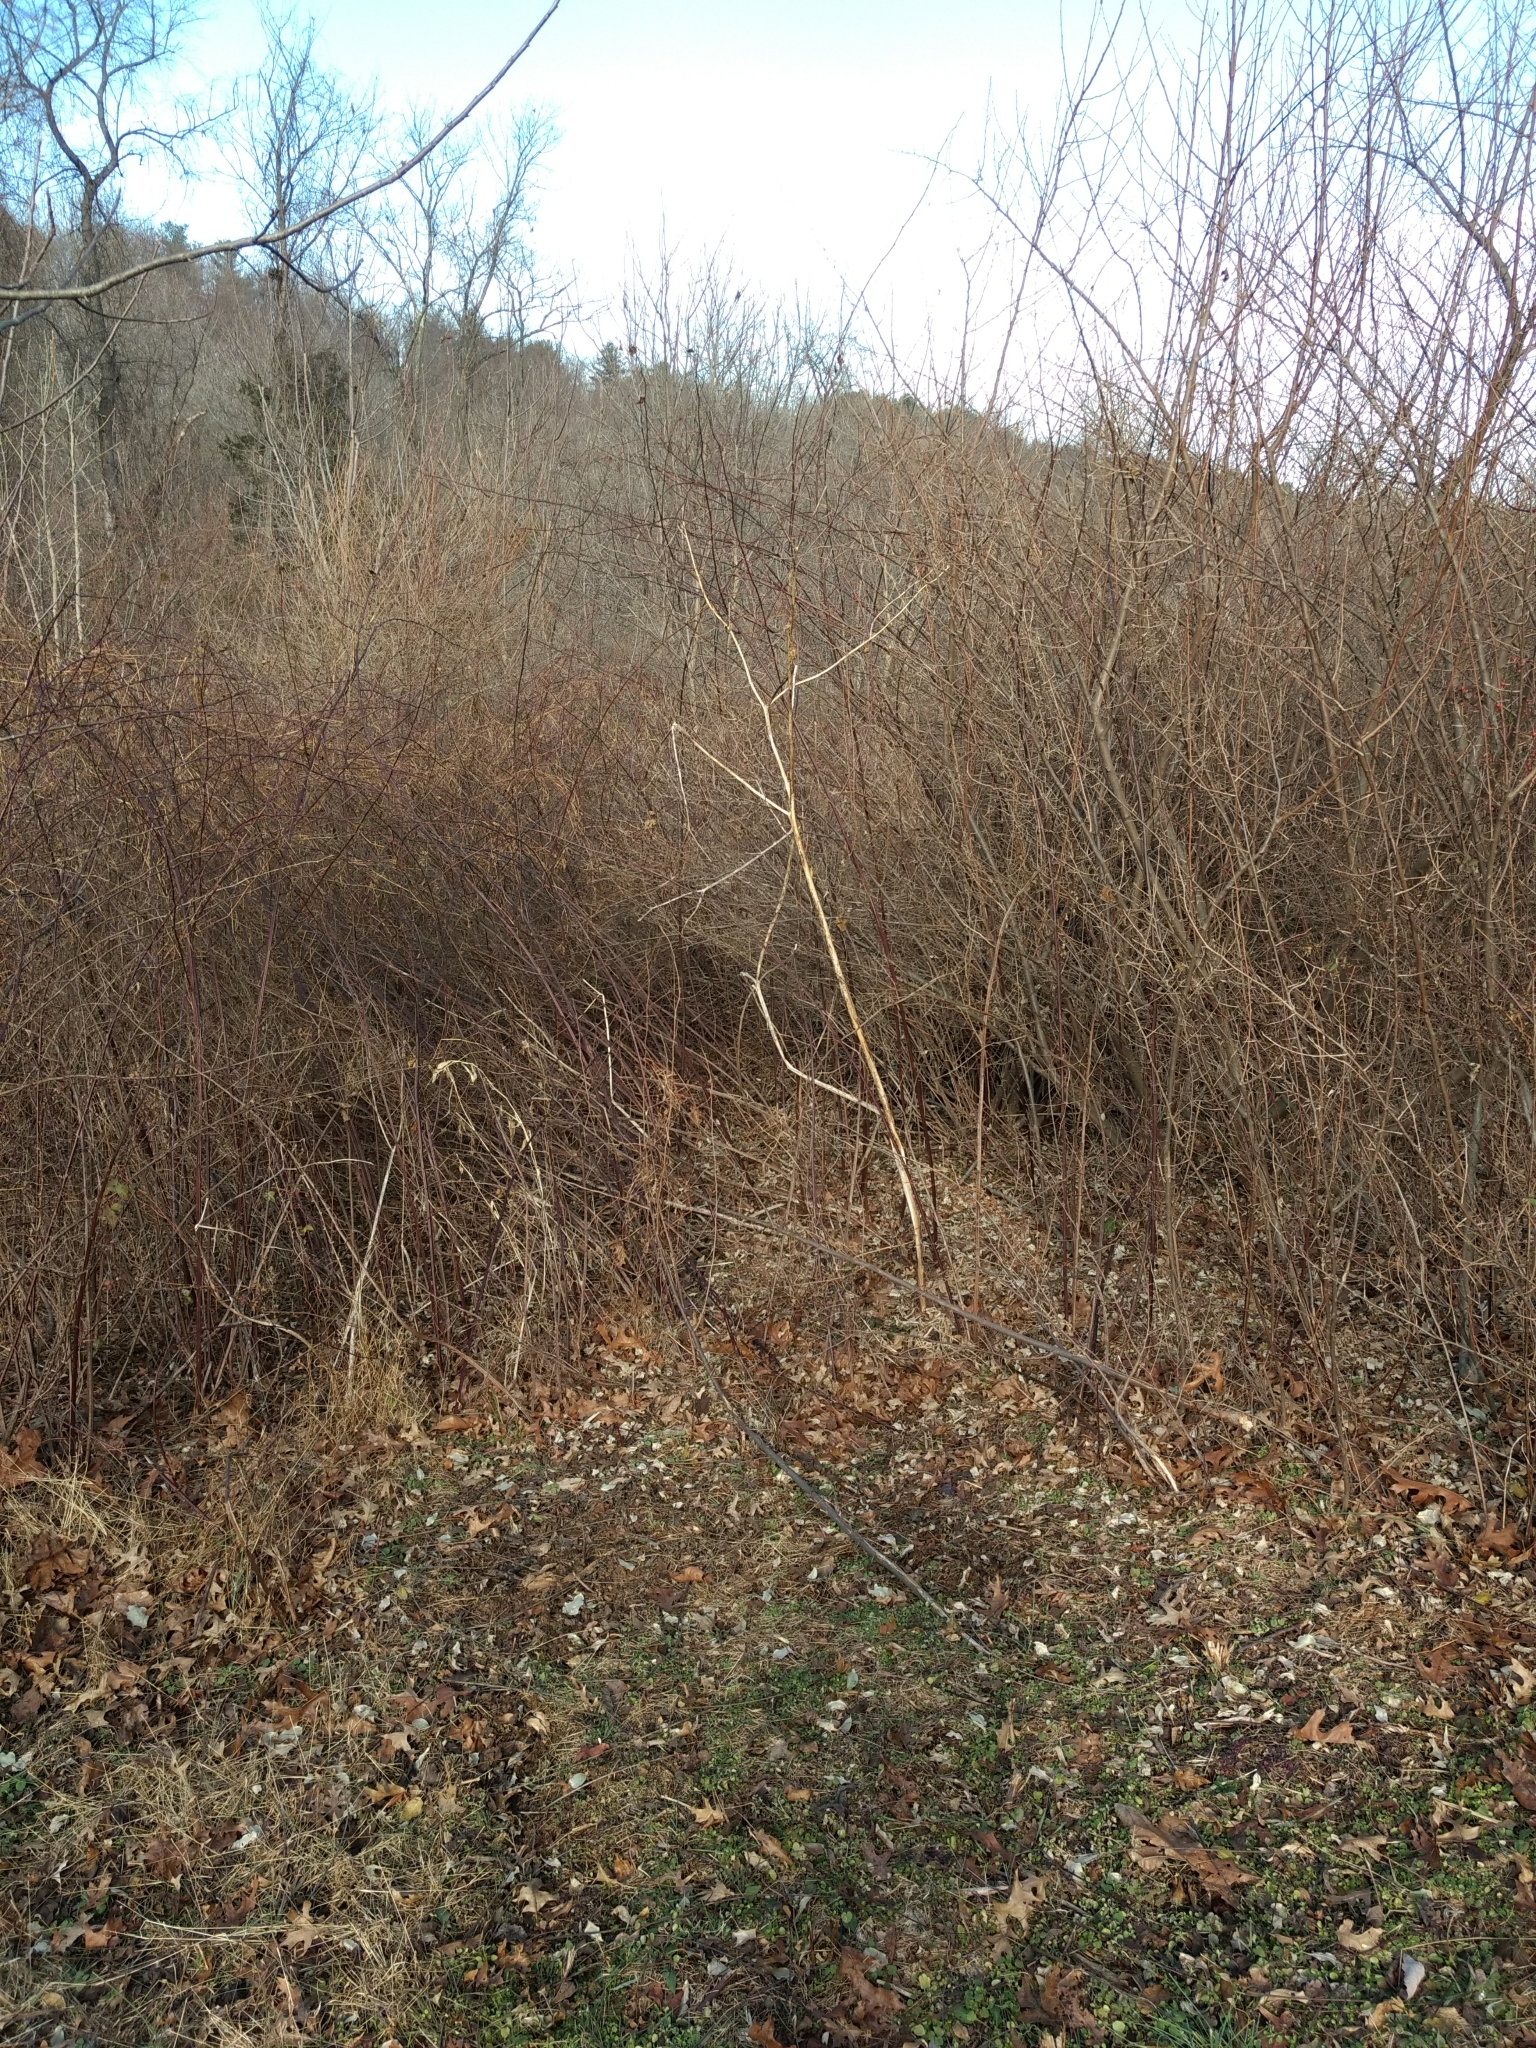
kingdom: Plantae
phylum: Tracheophyta
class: Magnoliopsida
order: Caryophyllales
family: Phytolaccaceae
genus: Phytolacca
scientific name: Phytolacca americana
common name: American pokeweed
